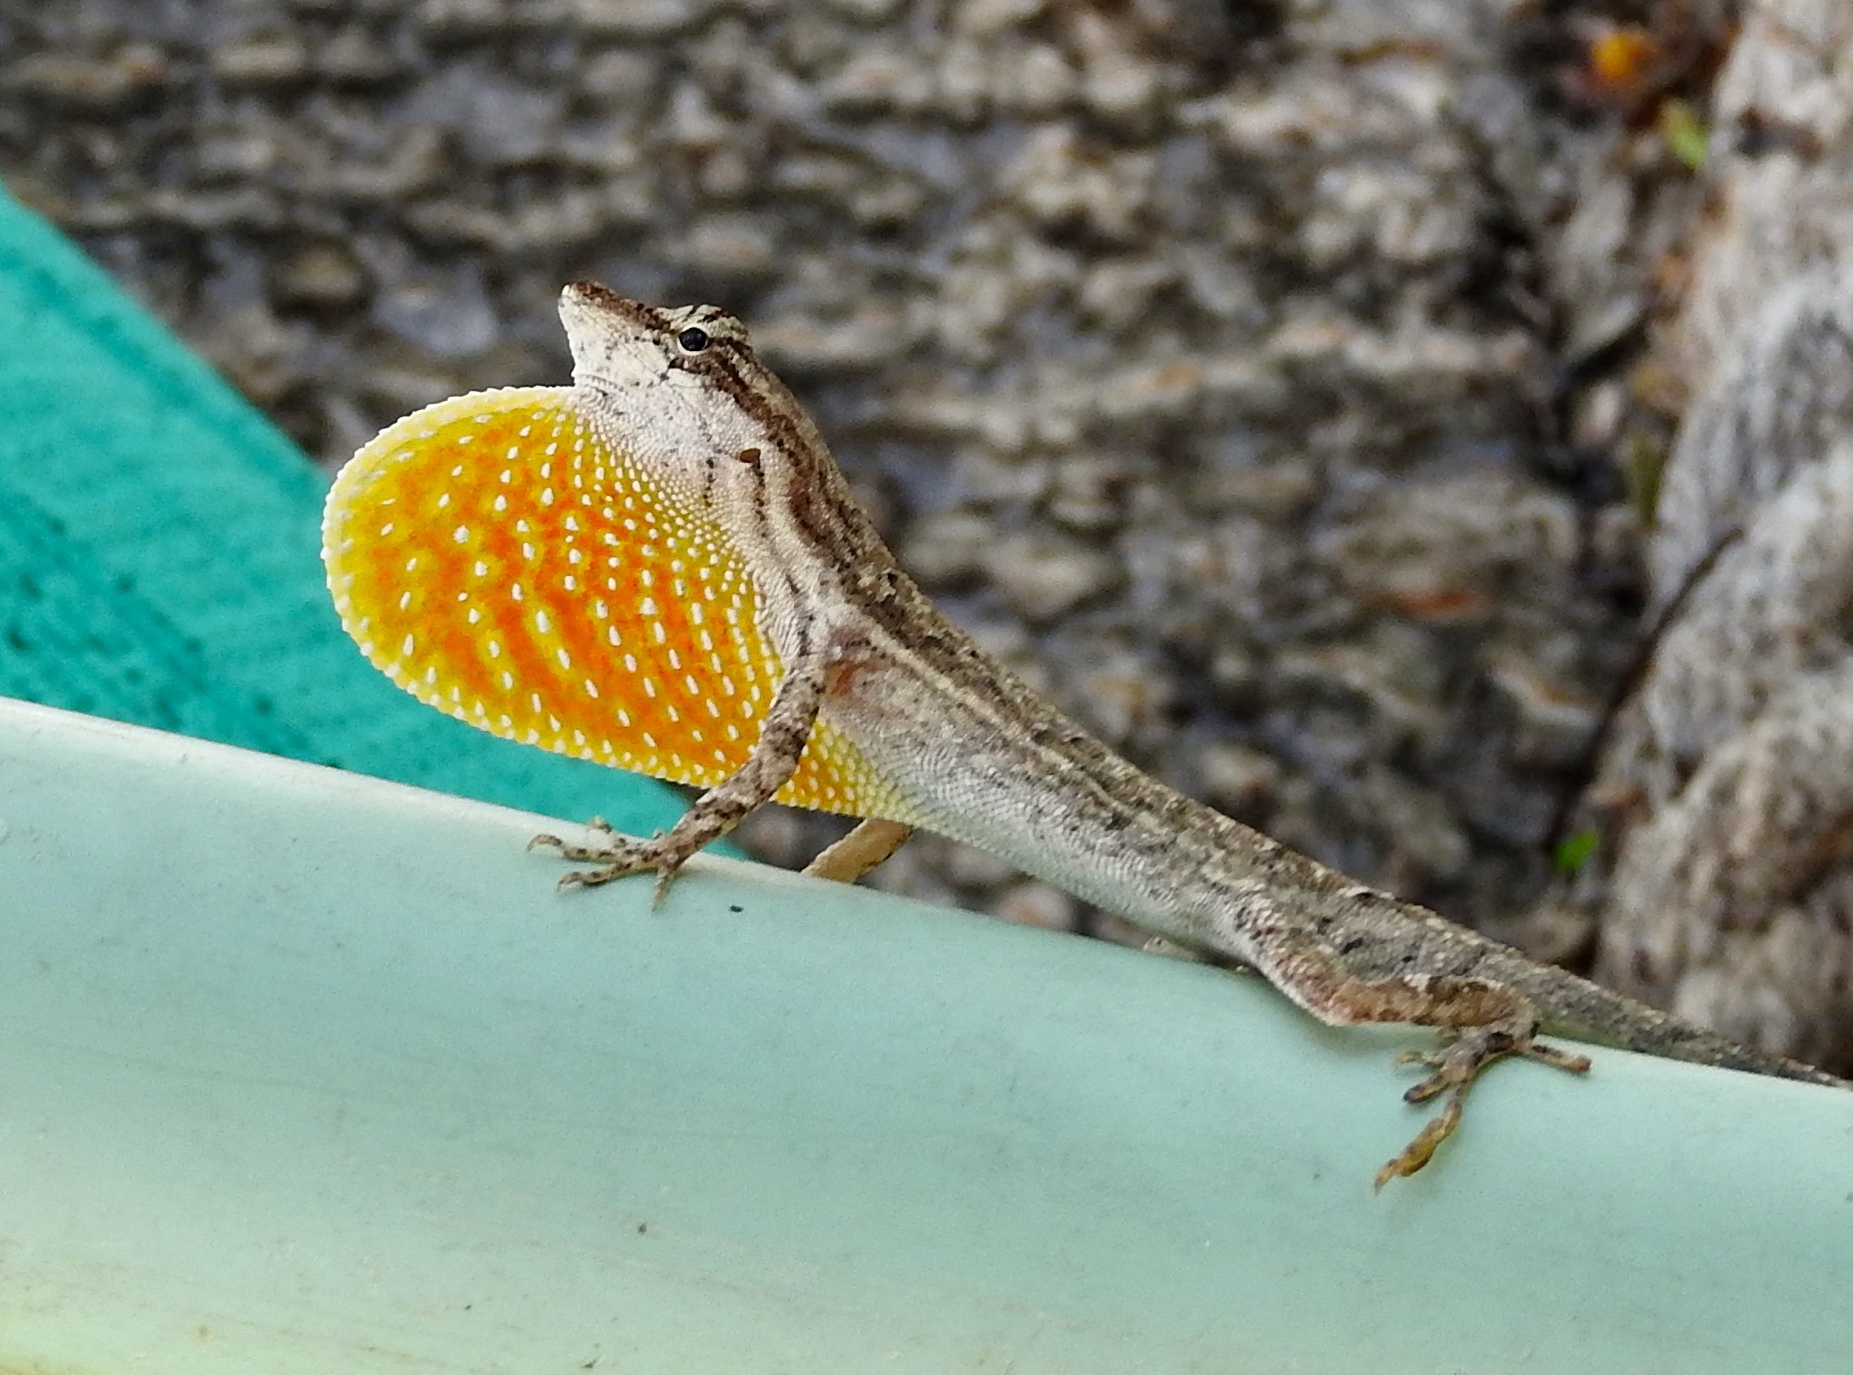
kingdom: Animalia
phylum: Chordata
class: Squamata
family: Dactyloidae
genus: Anolis
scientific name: Anolis nebulosus
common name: Clouded anole
